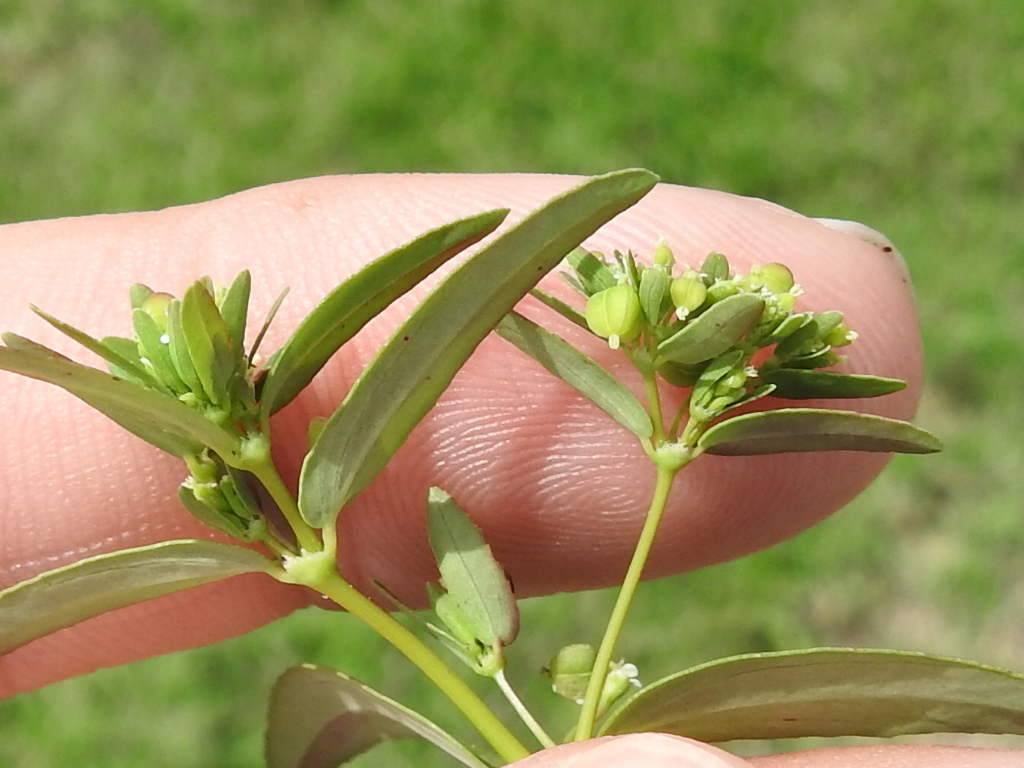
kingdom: Plantae
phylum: Tracheophyta
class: Magnoliopsida
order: Malpighiales
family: Euphorbiaceae
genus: Euphorbia
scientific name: Euphorbia hyssopifolia
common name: Hyssopleaf sandmat
